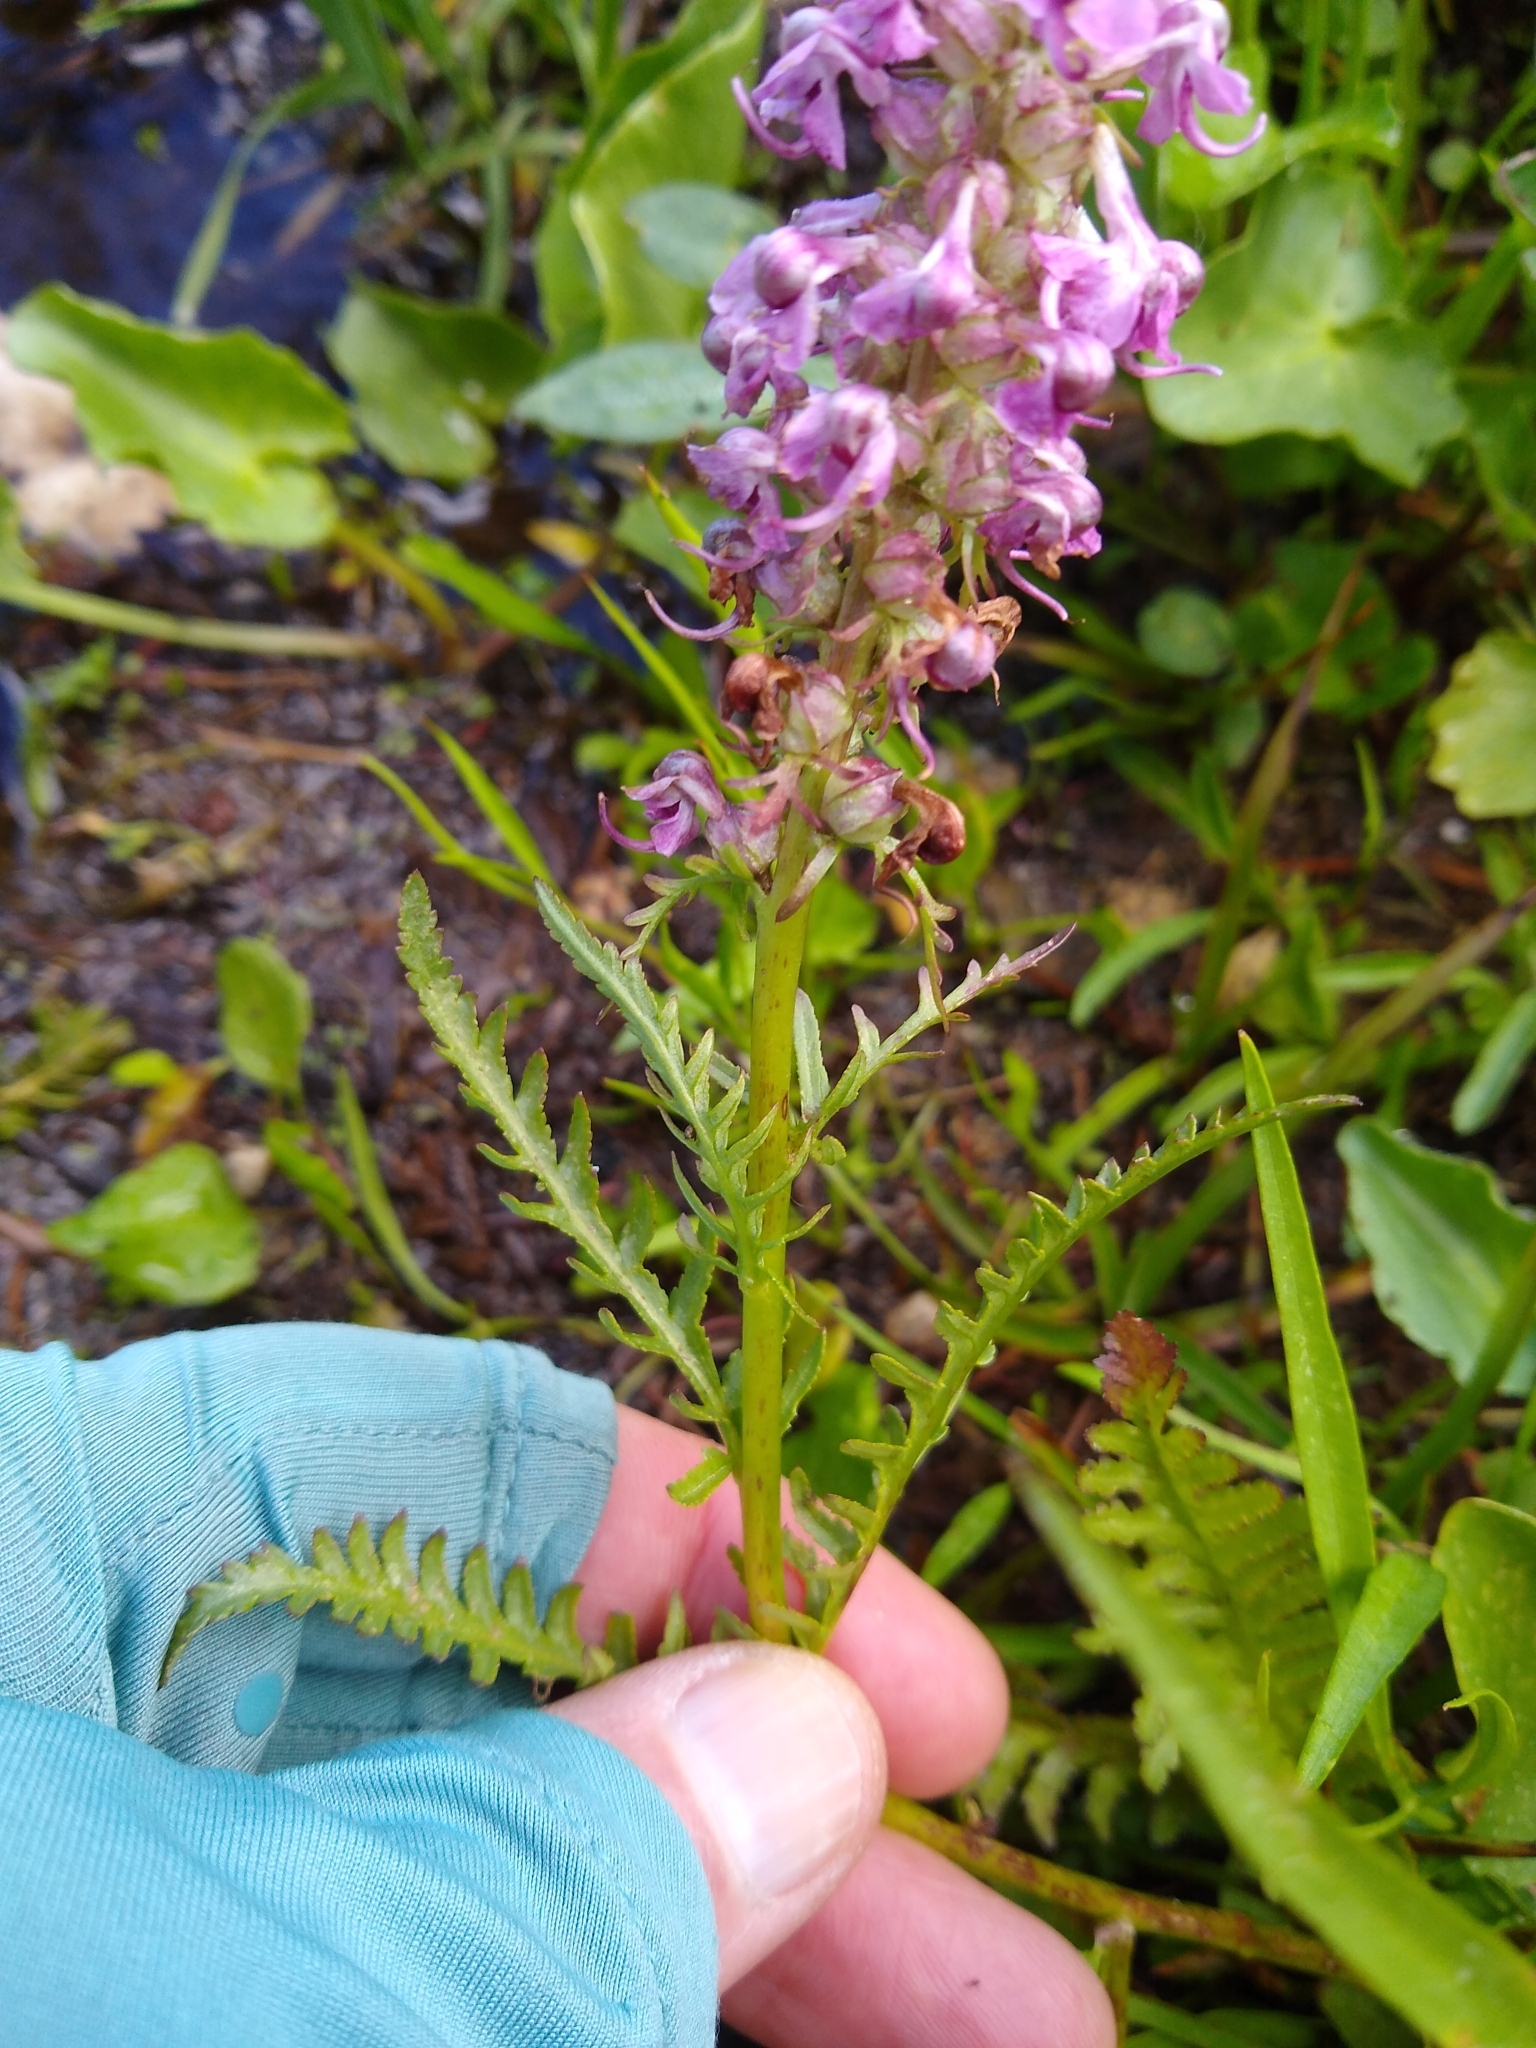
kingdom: Plantae
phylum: Tracheophyta
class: Magnoliopsida
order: Lamiales
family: Orobanchaceae
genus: Pedicularis
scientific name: Pedicularis groenlandica
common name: Elephant's-head
